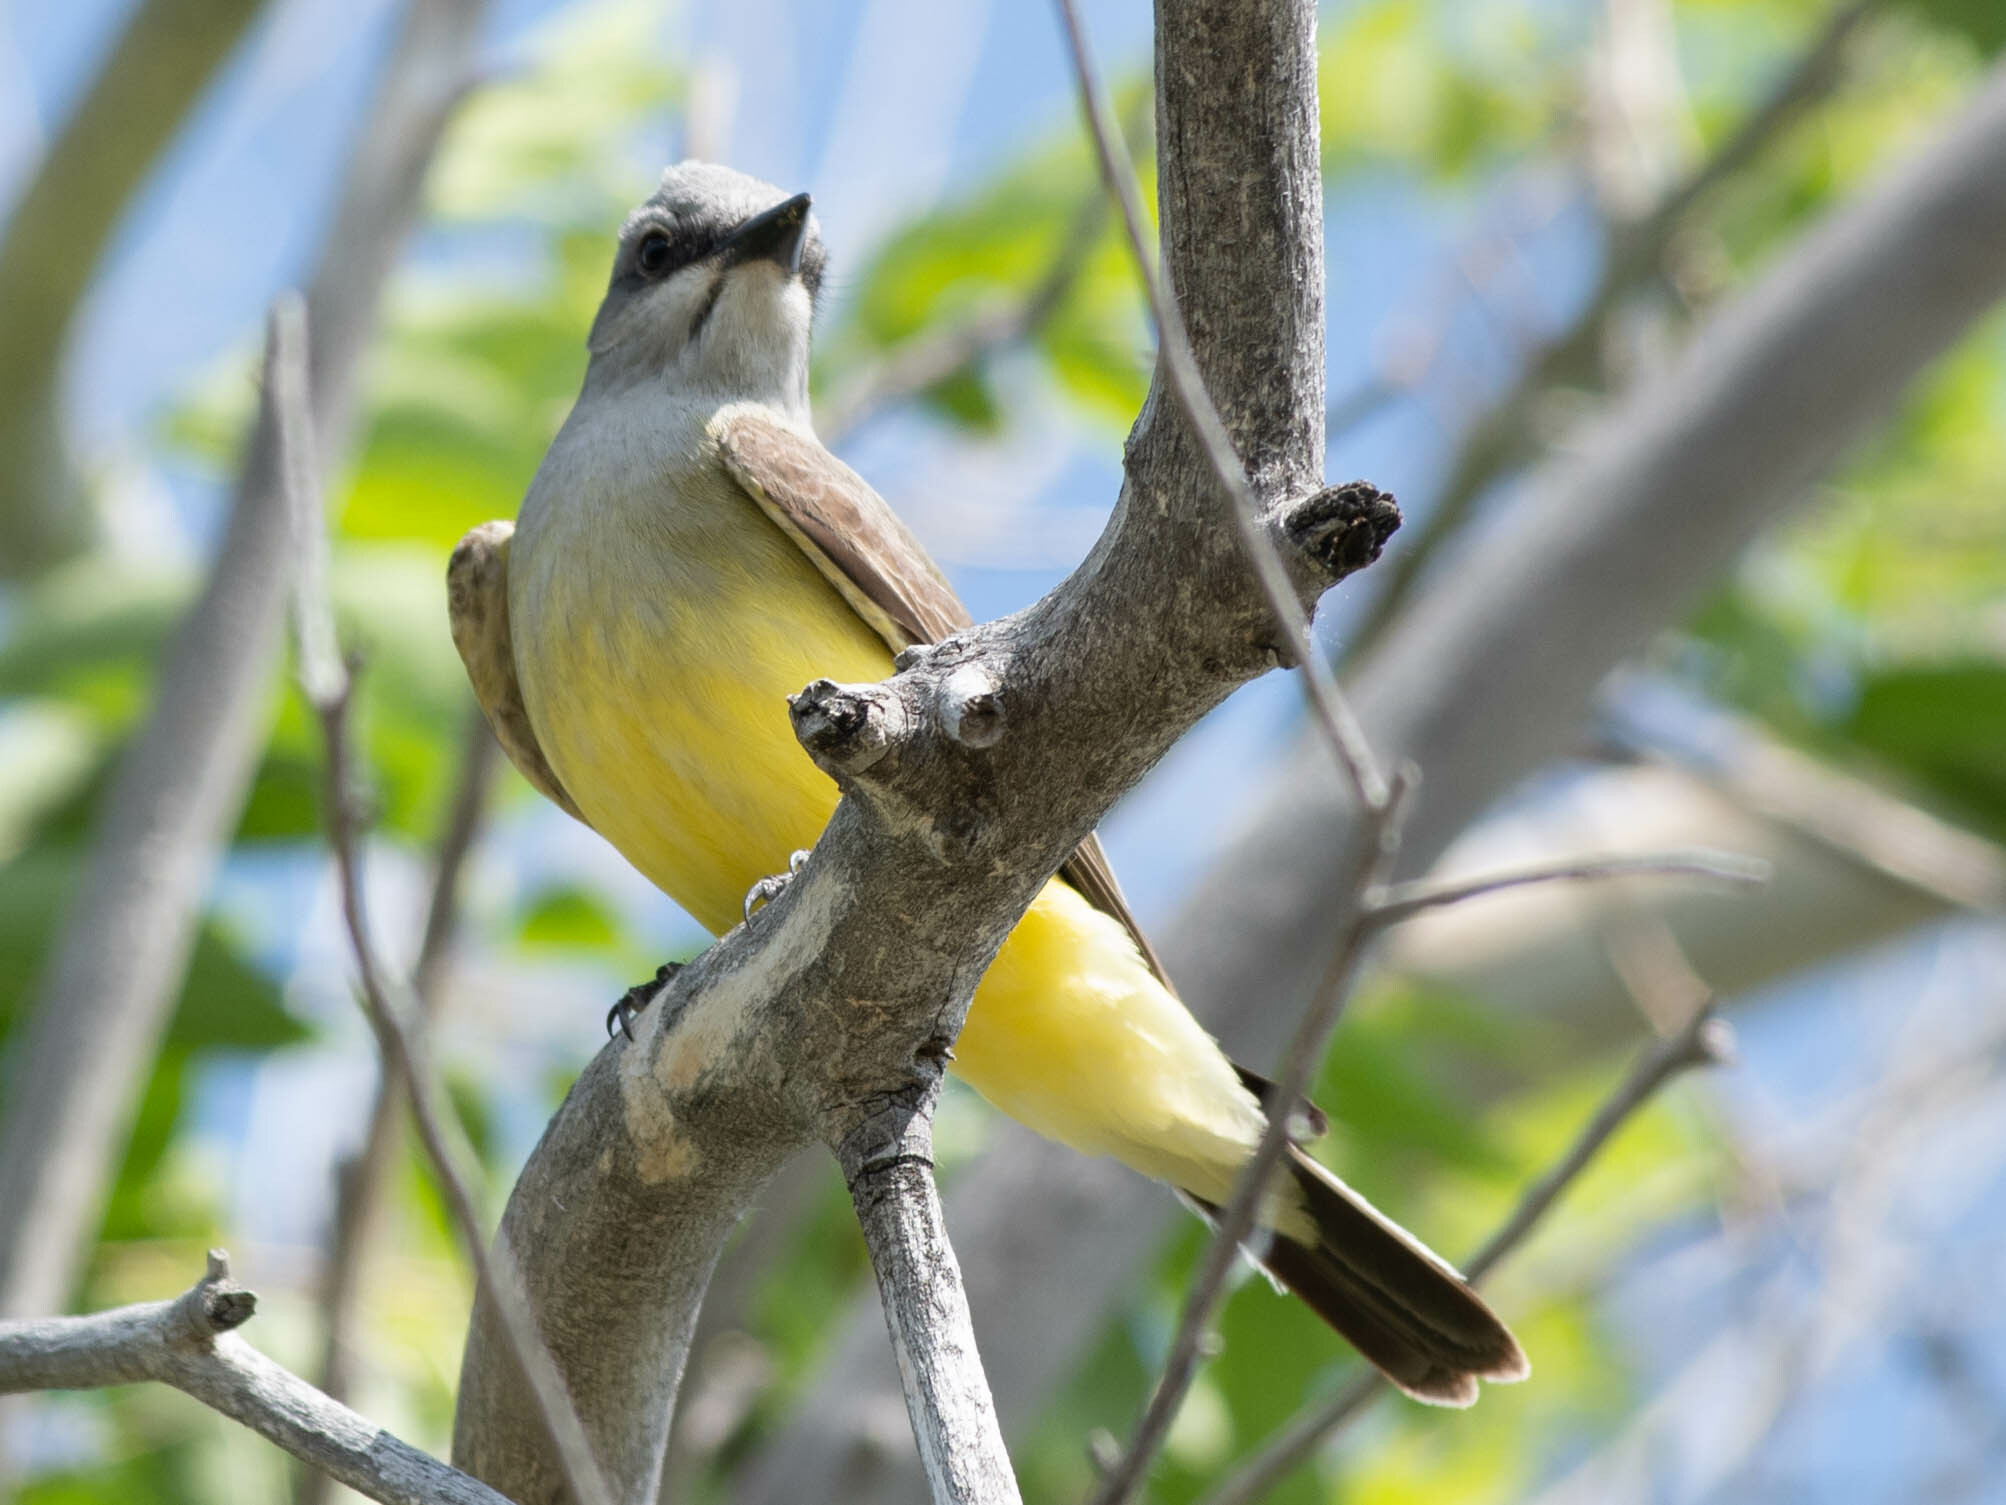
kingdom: Animalia
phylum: Chordata
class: Aves
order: Passeriformes
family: Tyrannidae
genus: Tyrannus
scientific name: Tyrannus verticalis
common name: Western kingbird
